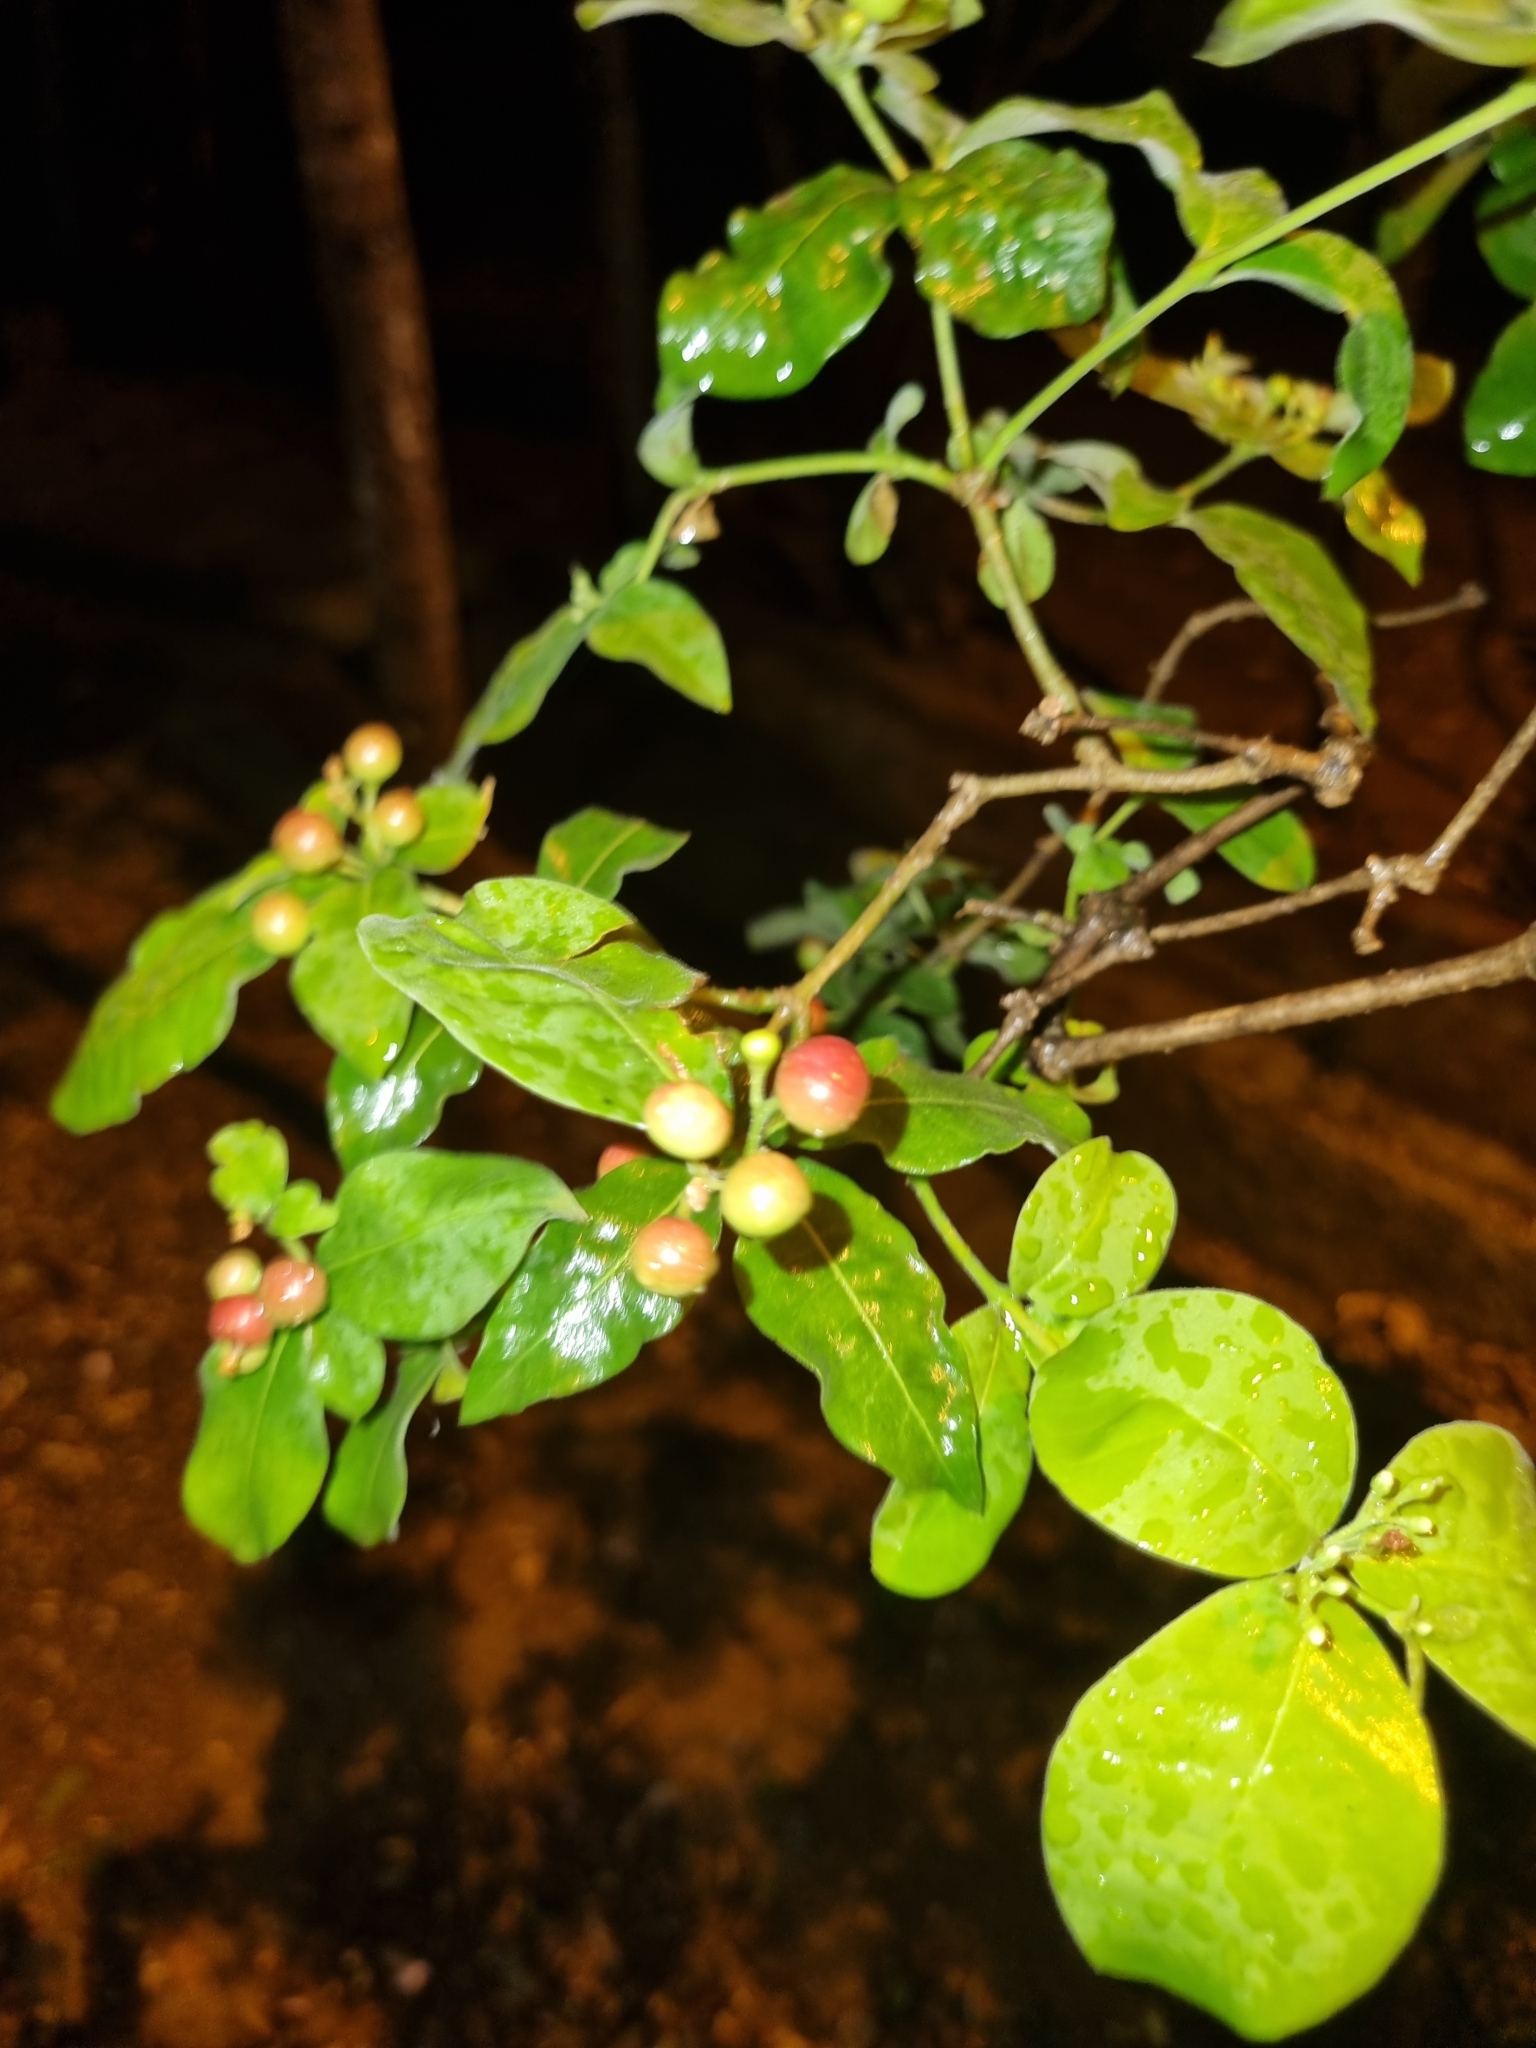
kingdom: Plantae
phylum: Tracheophyta
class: Magnoliopsida
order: Gentianales
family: Apocynaceae
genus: Rauvolfia
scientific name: Rauvolfia tetraphylla
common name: Four-leaf devil-pepper
